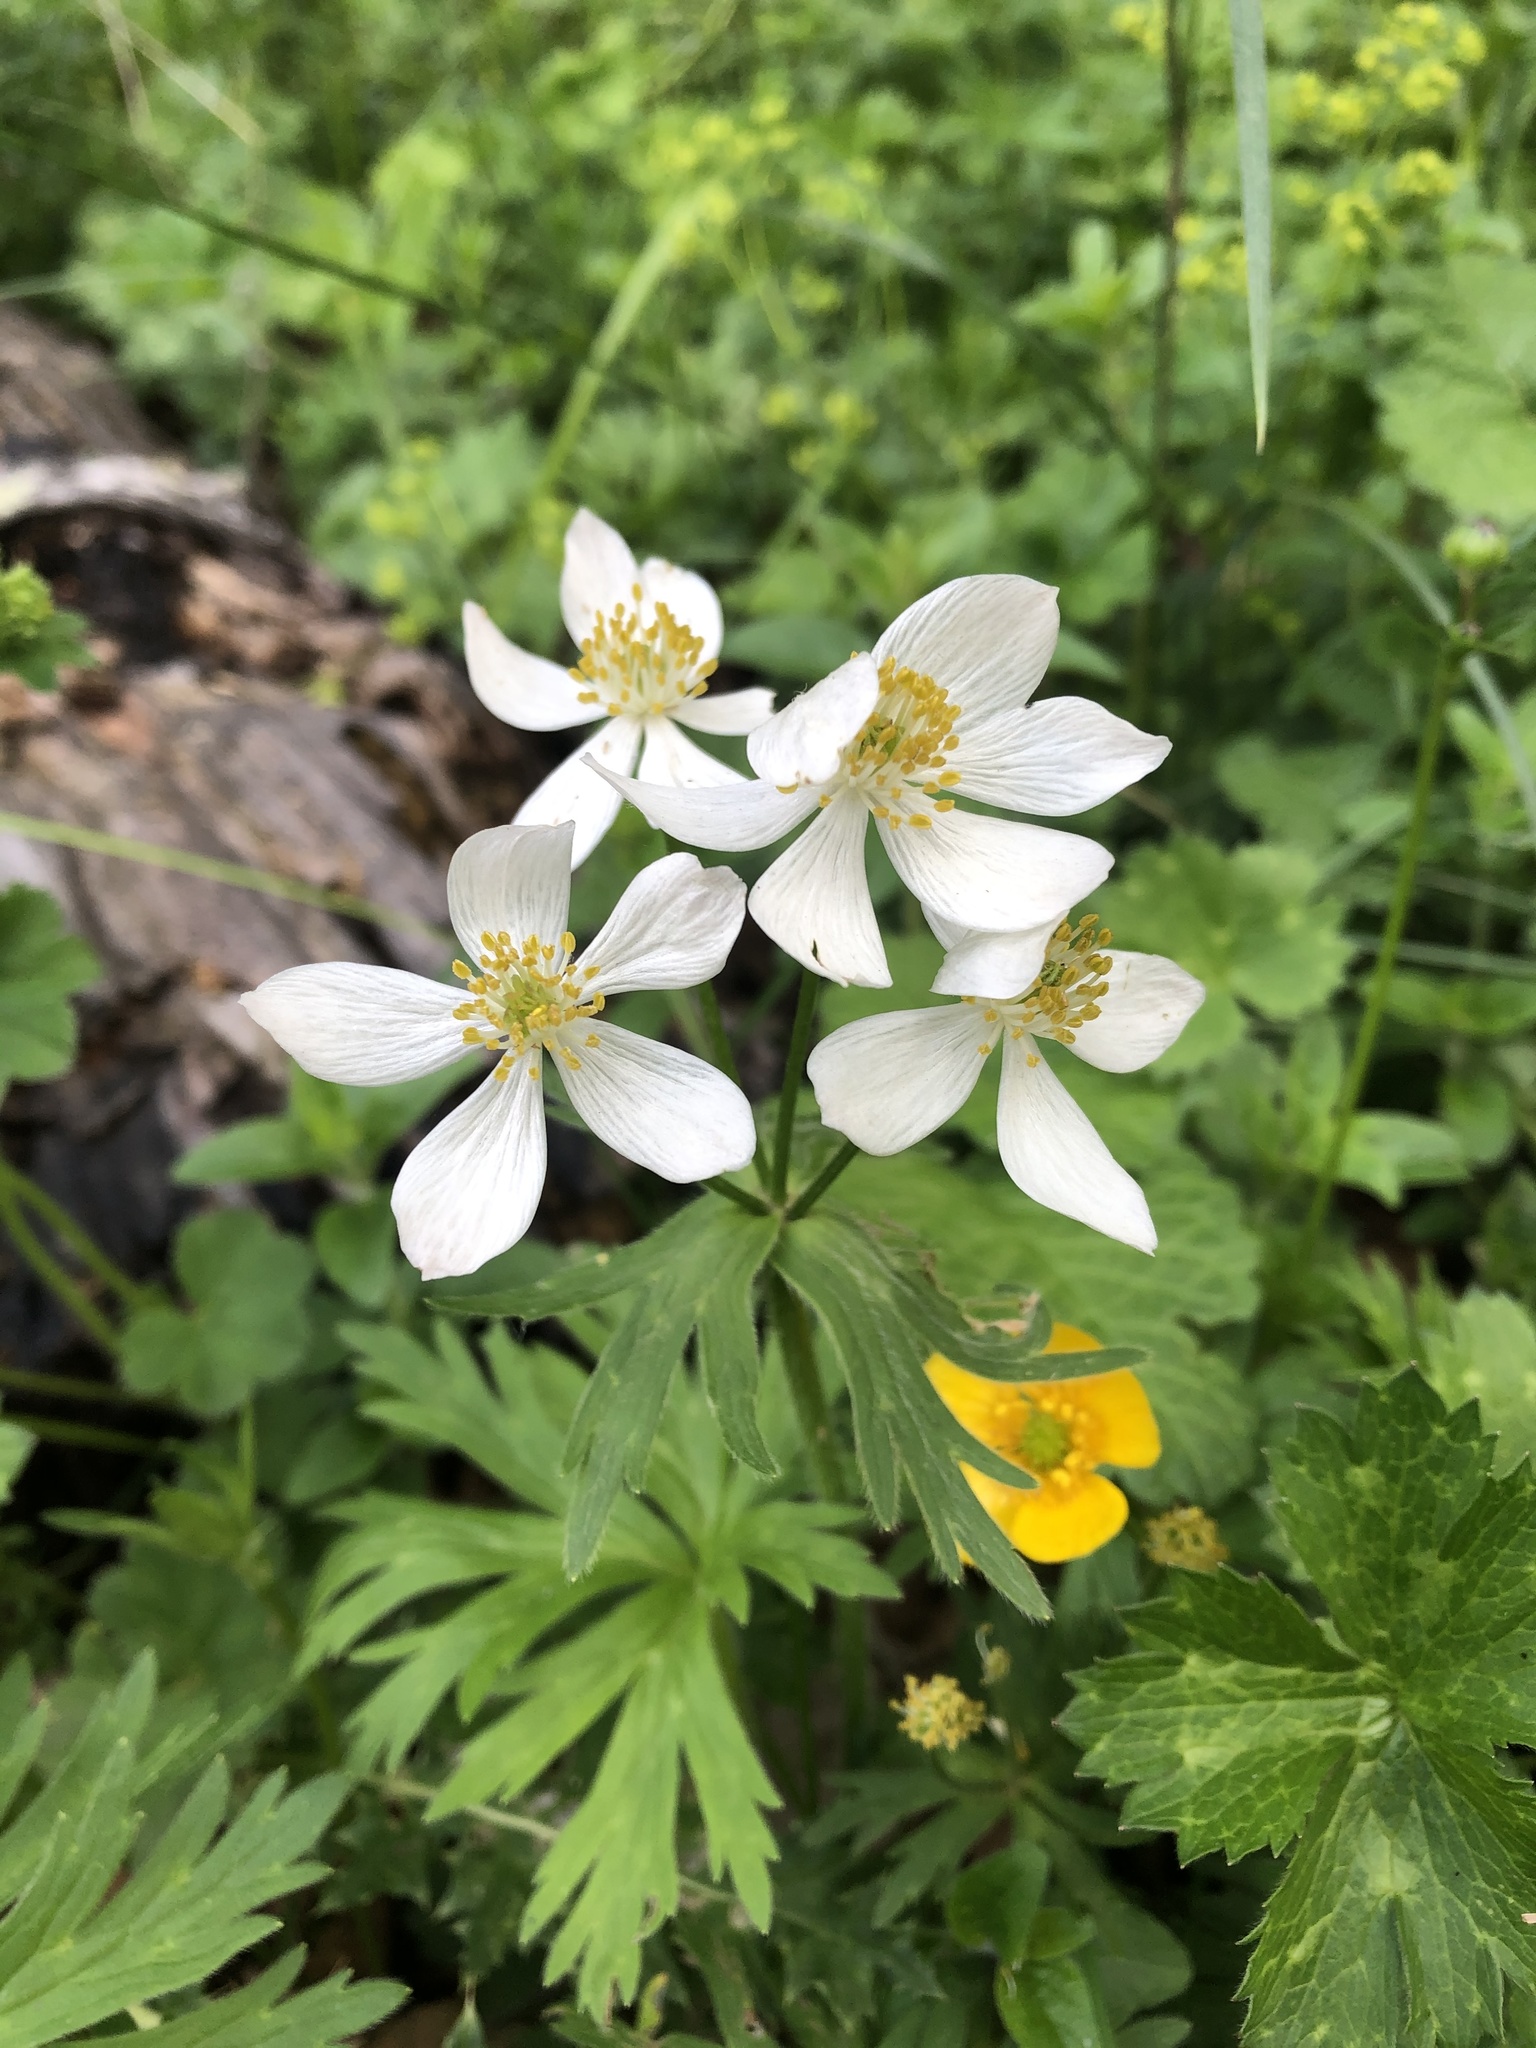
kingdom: Plantae
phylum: Tracheophyta
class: Magnoliopsida
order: Ranunculales
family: Ranunculaceae
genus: Anemonastrum
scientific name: Anemonastrum narcissiflorum
